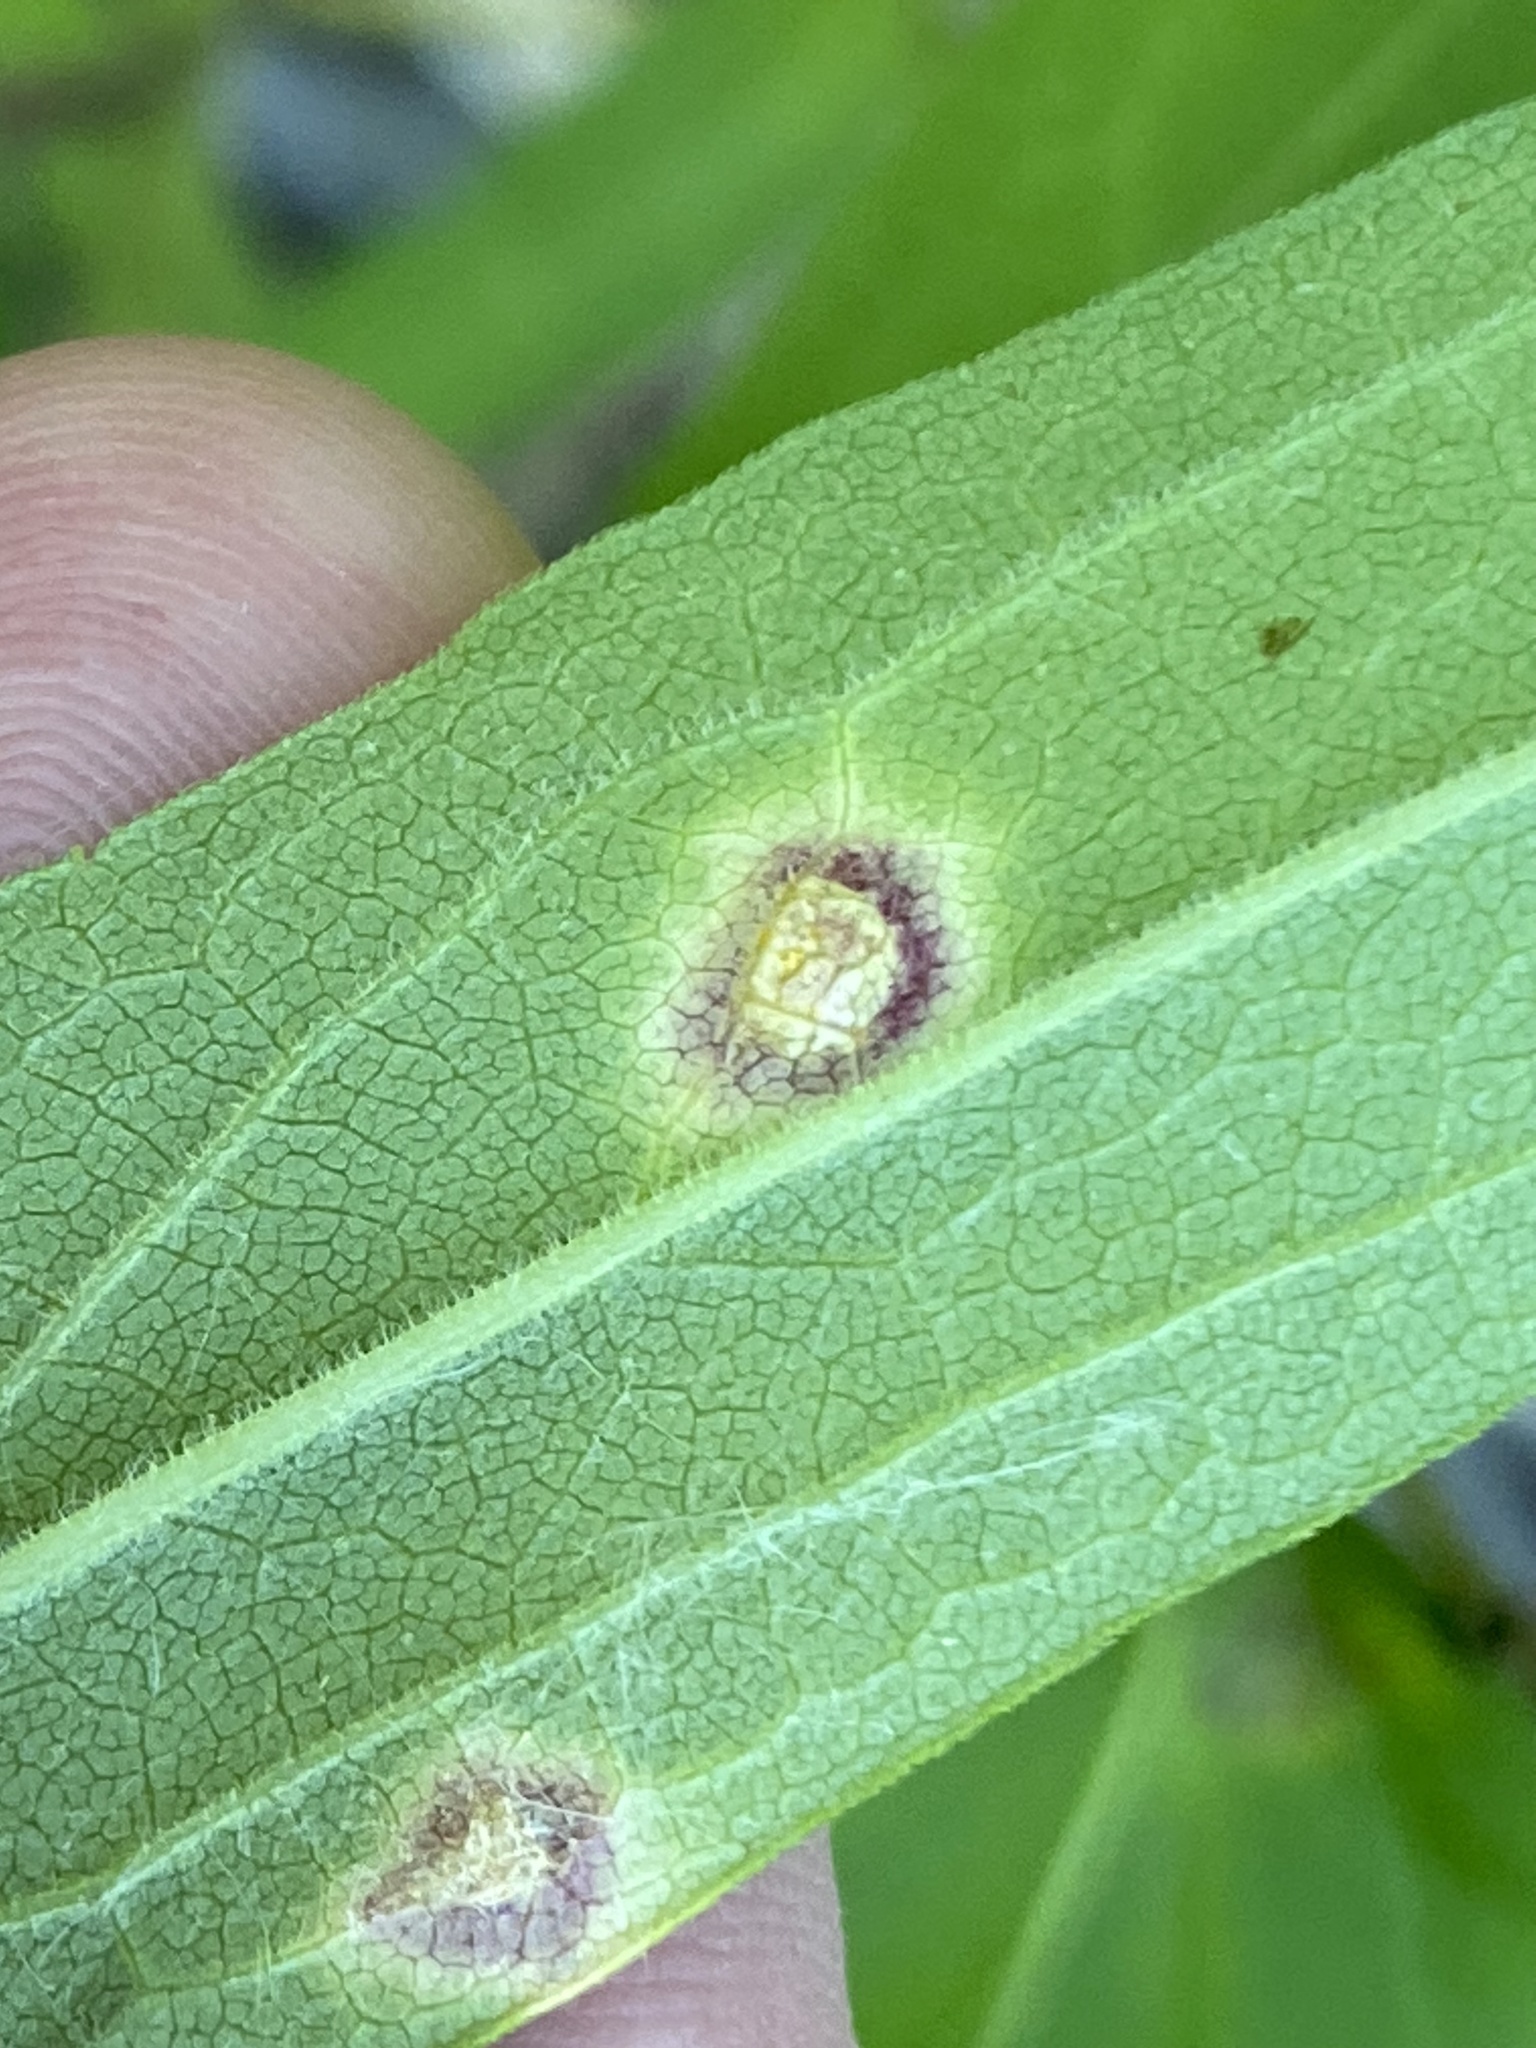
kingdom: Animalia
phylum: Arthropoda
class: Insecta
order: Diptera
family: Cecidomyiidae
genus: Asteromyia
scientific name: Asteromyia carbonifera
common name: Carbonifera goldenrod gall midge
